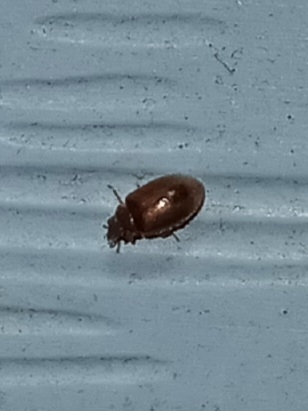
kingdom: Animalia
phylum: Arthropoda
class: Insecta
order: Coleoptera
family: Scirtidae
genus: Contacyphon
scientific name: Contacyphon
